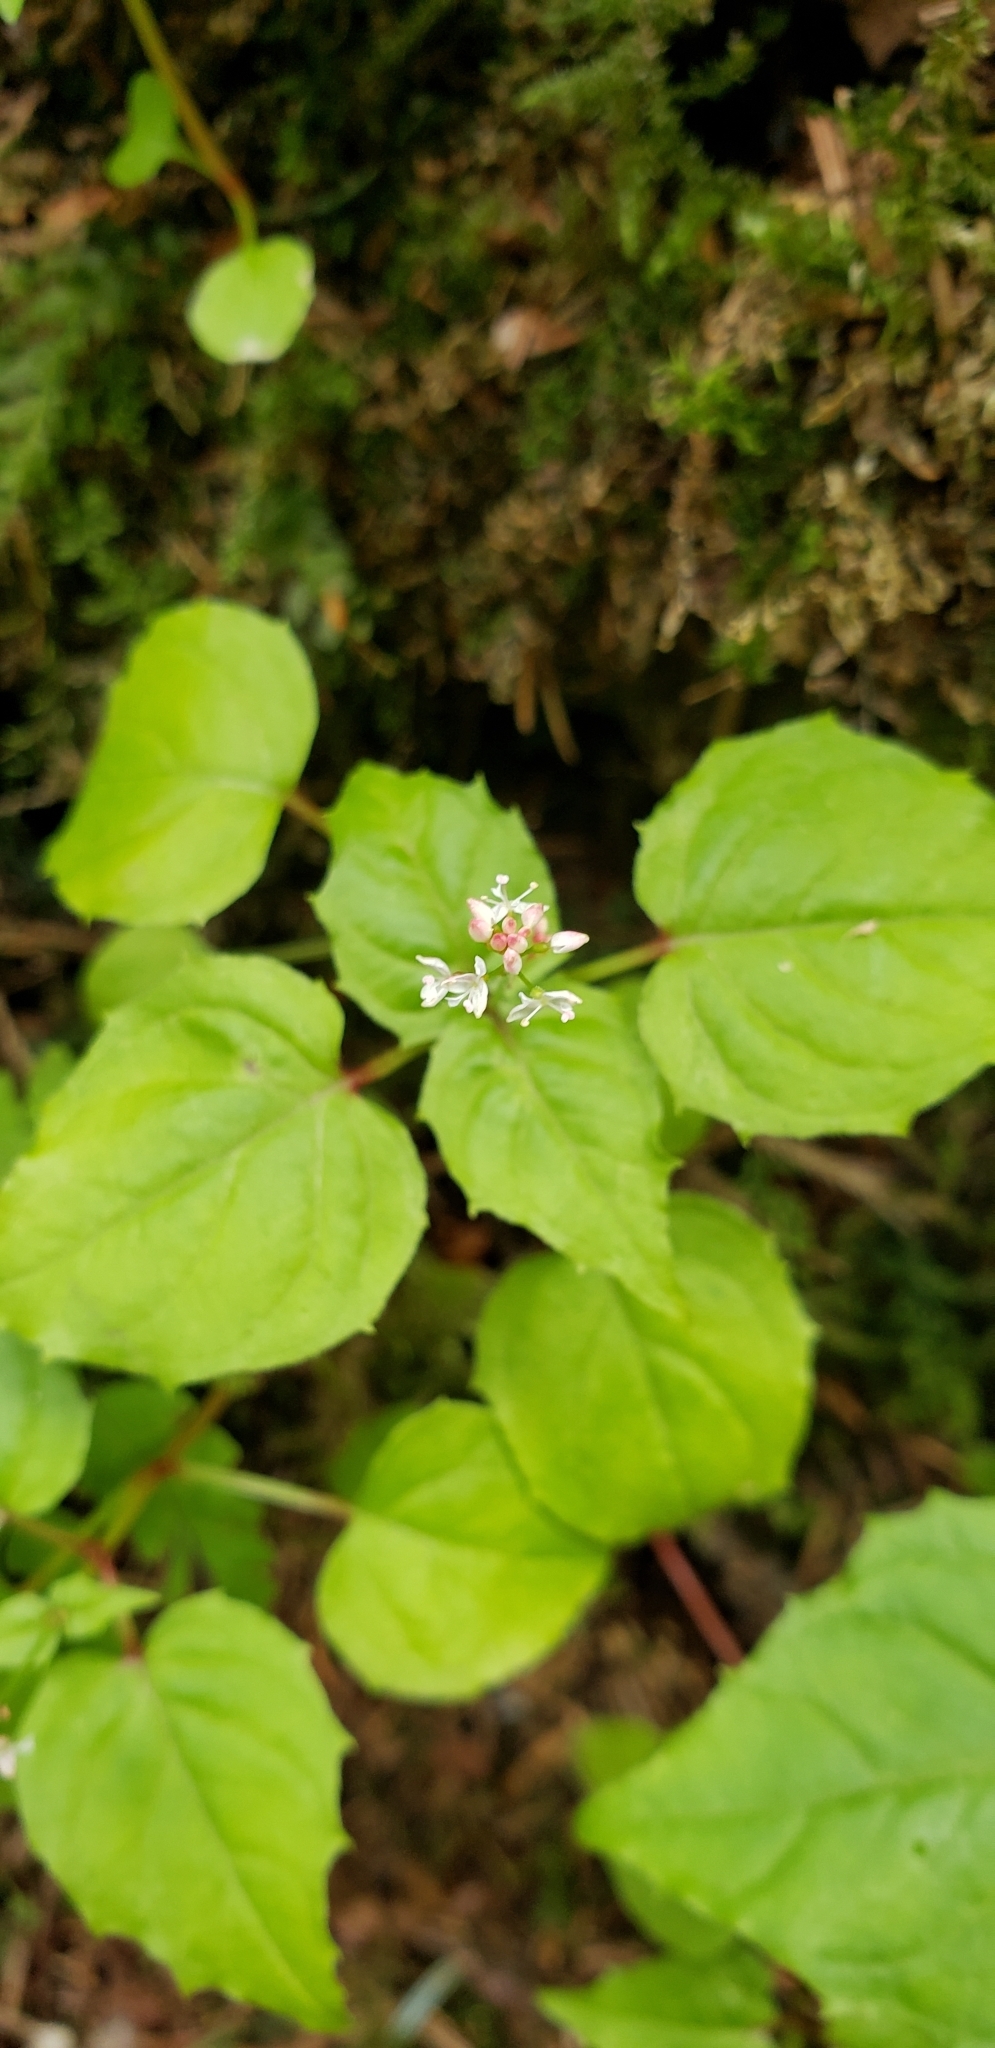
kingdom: Plantae
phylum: Tracheophyta
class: Magnoliopsida
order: Myrtales
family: Onagraceae
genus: Circaea
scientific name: Circaea alpina
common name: Alpine enchanter's-nightshade
